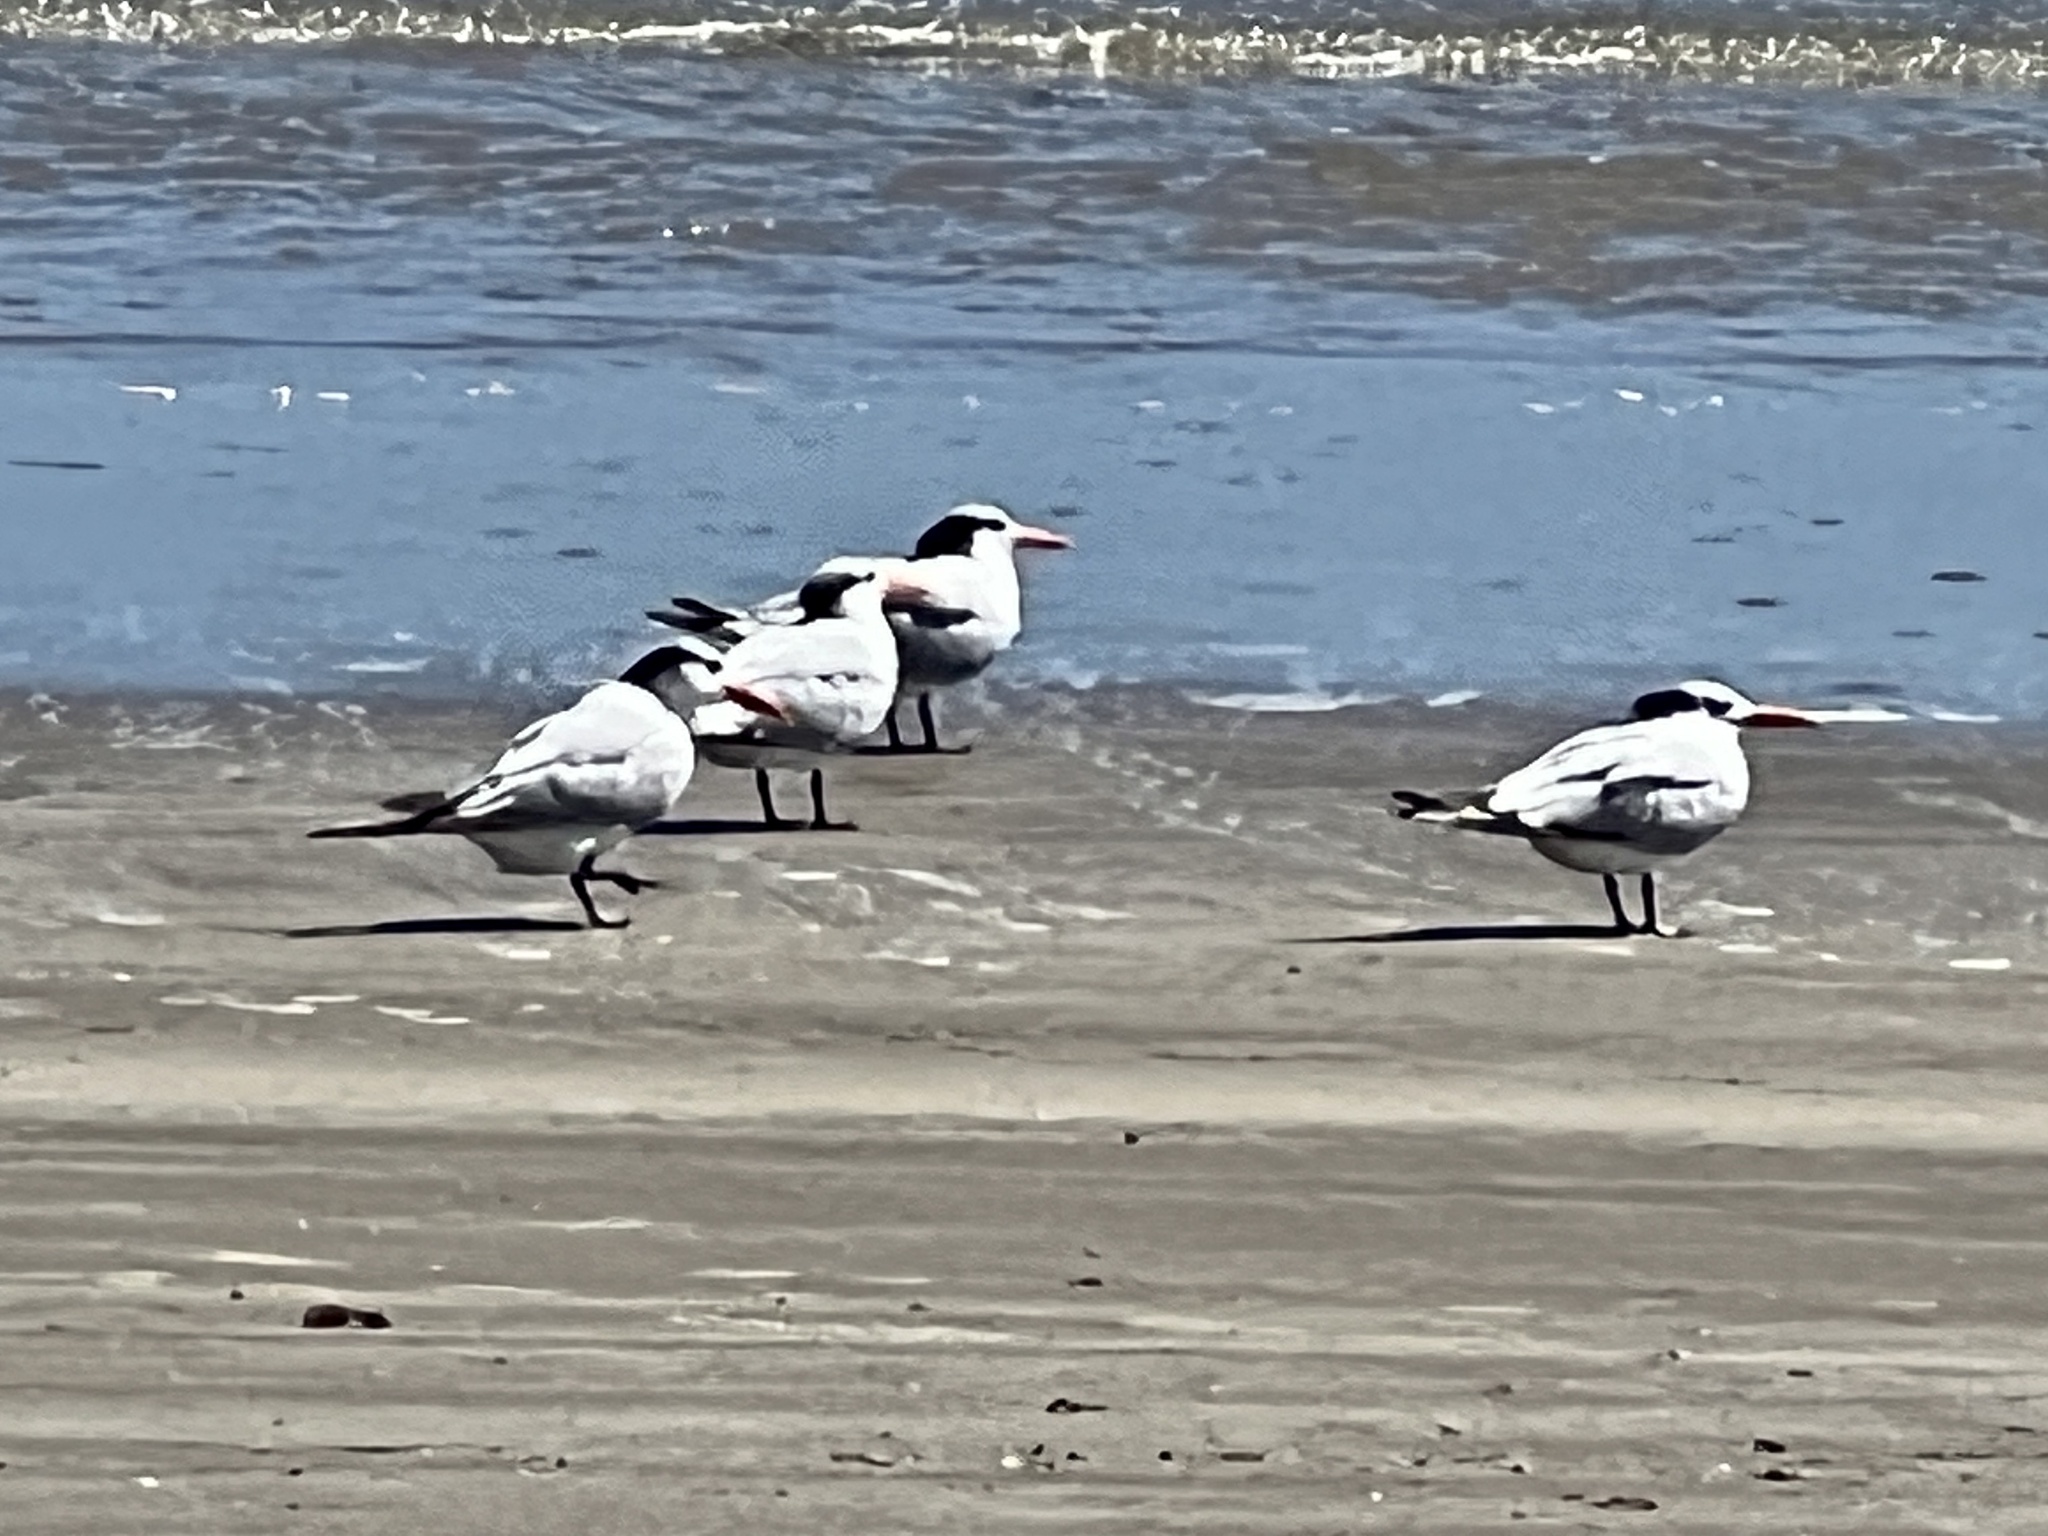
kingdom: Animalia
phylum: Chordata
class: Aves
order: Charadriiformes
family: Laridae
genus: Thalasseus
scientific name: Thalasseus maximus
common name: Royal tern
